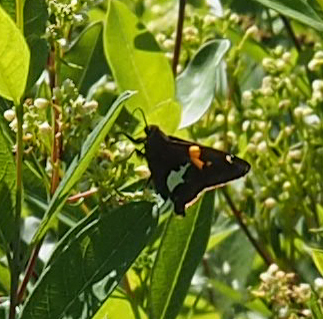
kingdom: Animalia
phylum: Arthropoda
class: Insecta
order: Lepidoptera
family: Hesperiidae
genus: Epargyreus
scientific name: Epargyreus clarus
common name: Silver-spotted skipper
